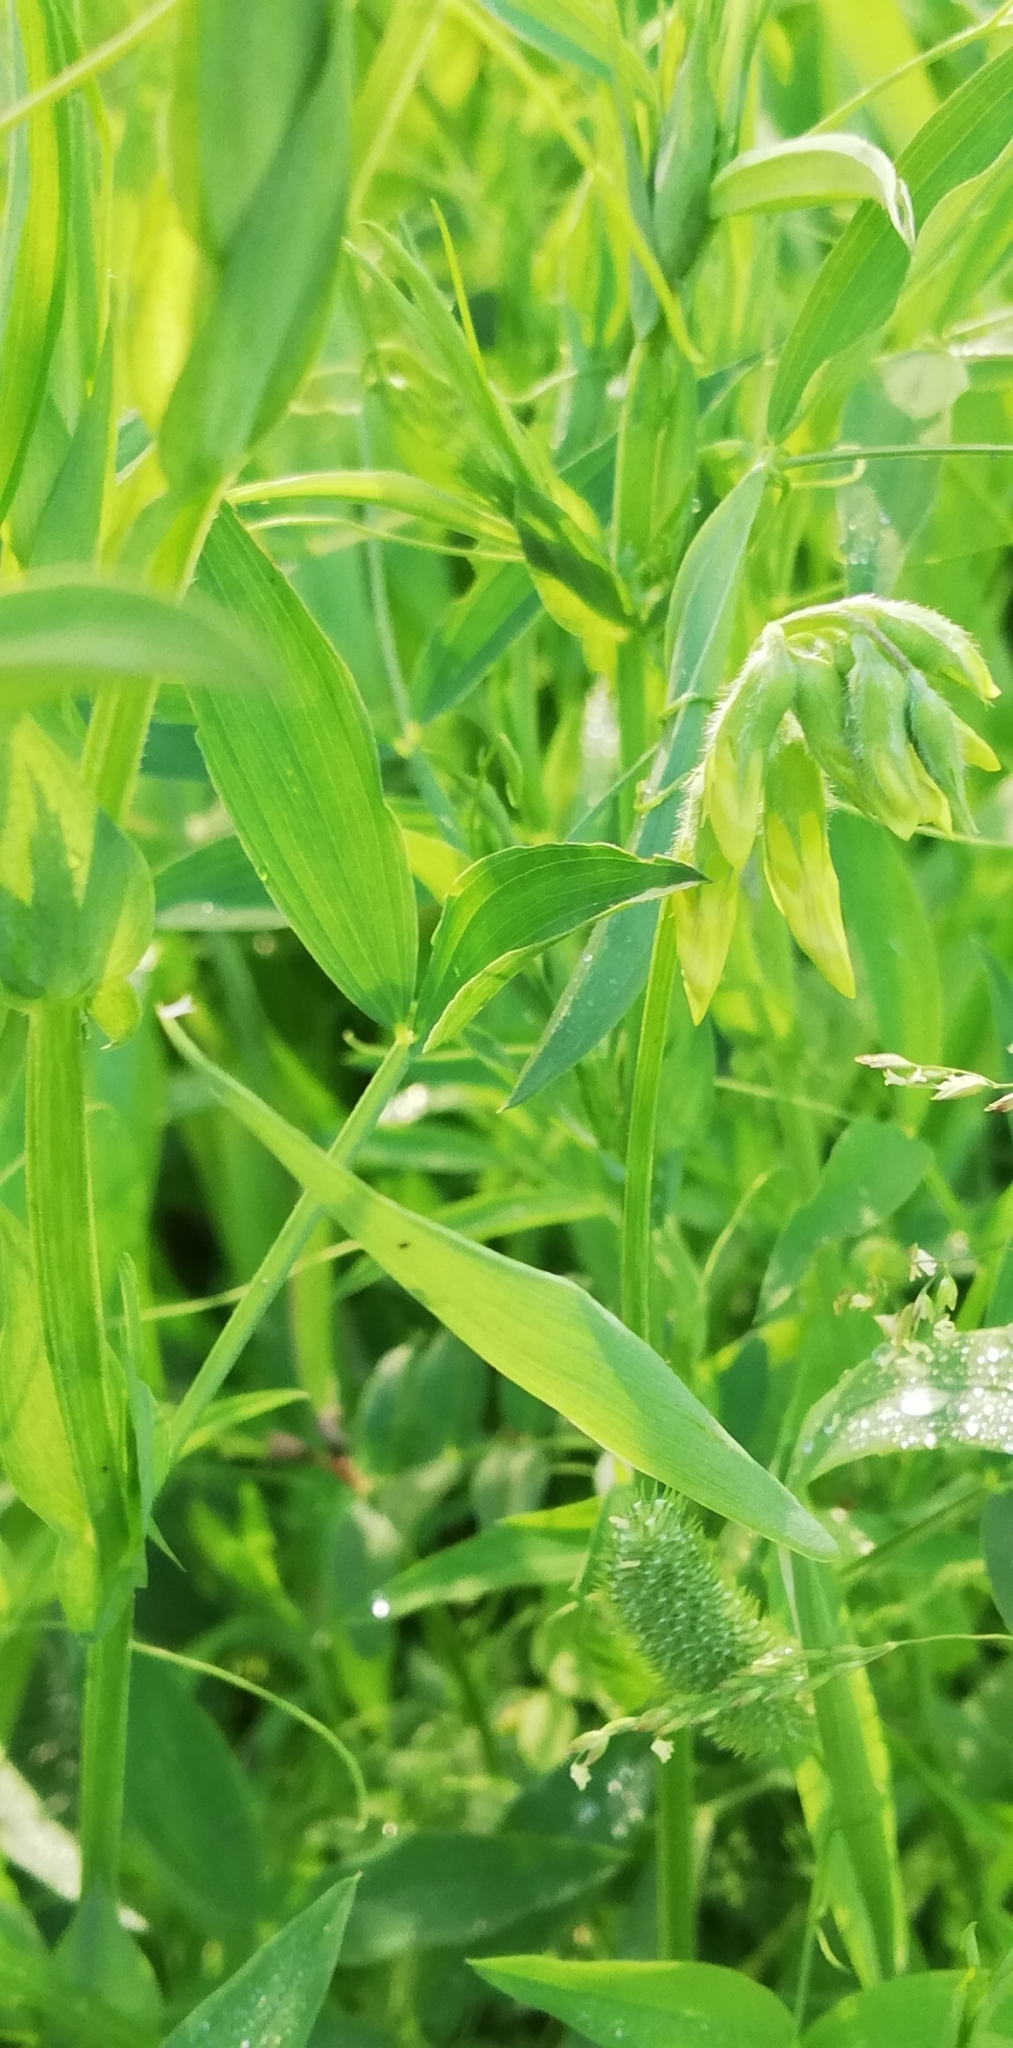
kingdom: Plantae
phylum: Tracheophyta
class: Magnoliopsida
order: Fabales
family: Fabaceae
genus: Lathyrus
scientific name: Lathyrus pratensis
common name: Meadow vetchling
